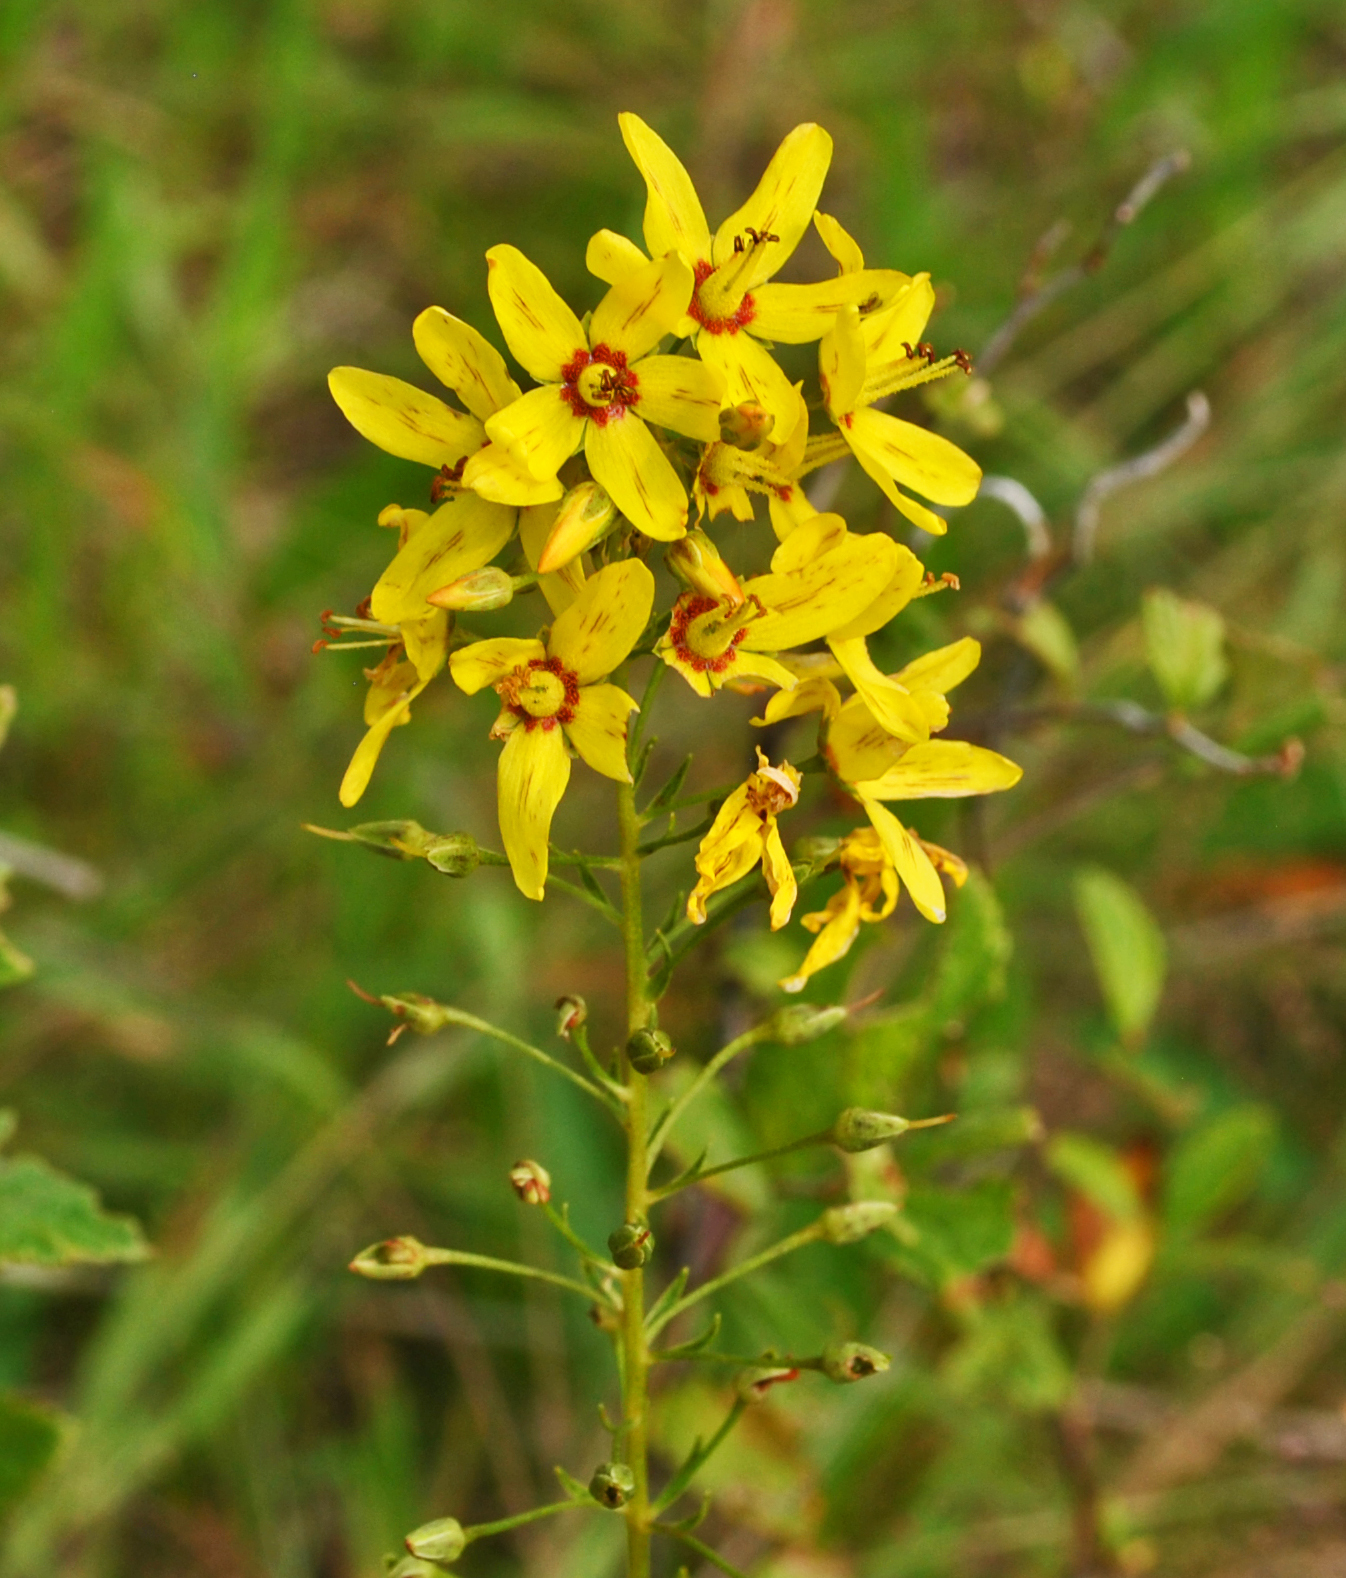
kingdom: Plantae
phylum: Tracheophyta
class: Magnoliopsida
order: Ericales
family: Primulaceae
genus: Lysimachia
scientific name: Lysimachia terrestris
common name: Lake loosestrife
